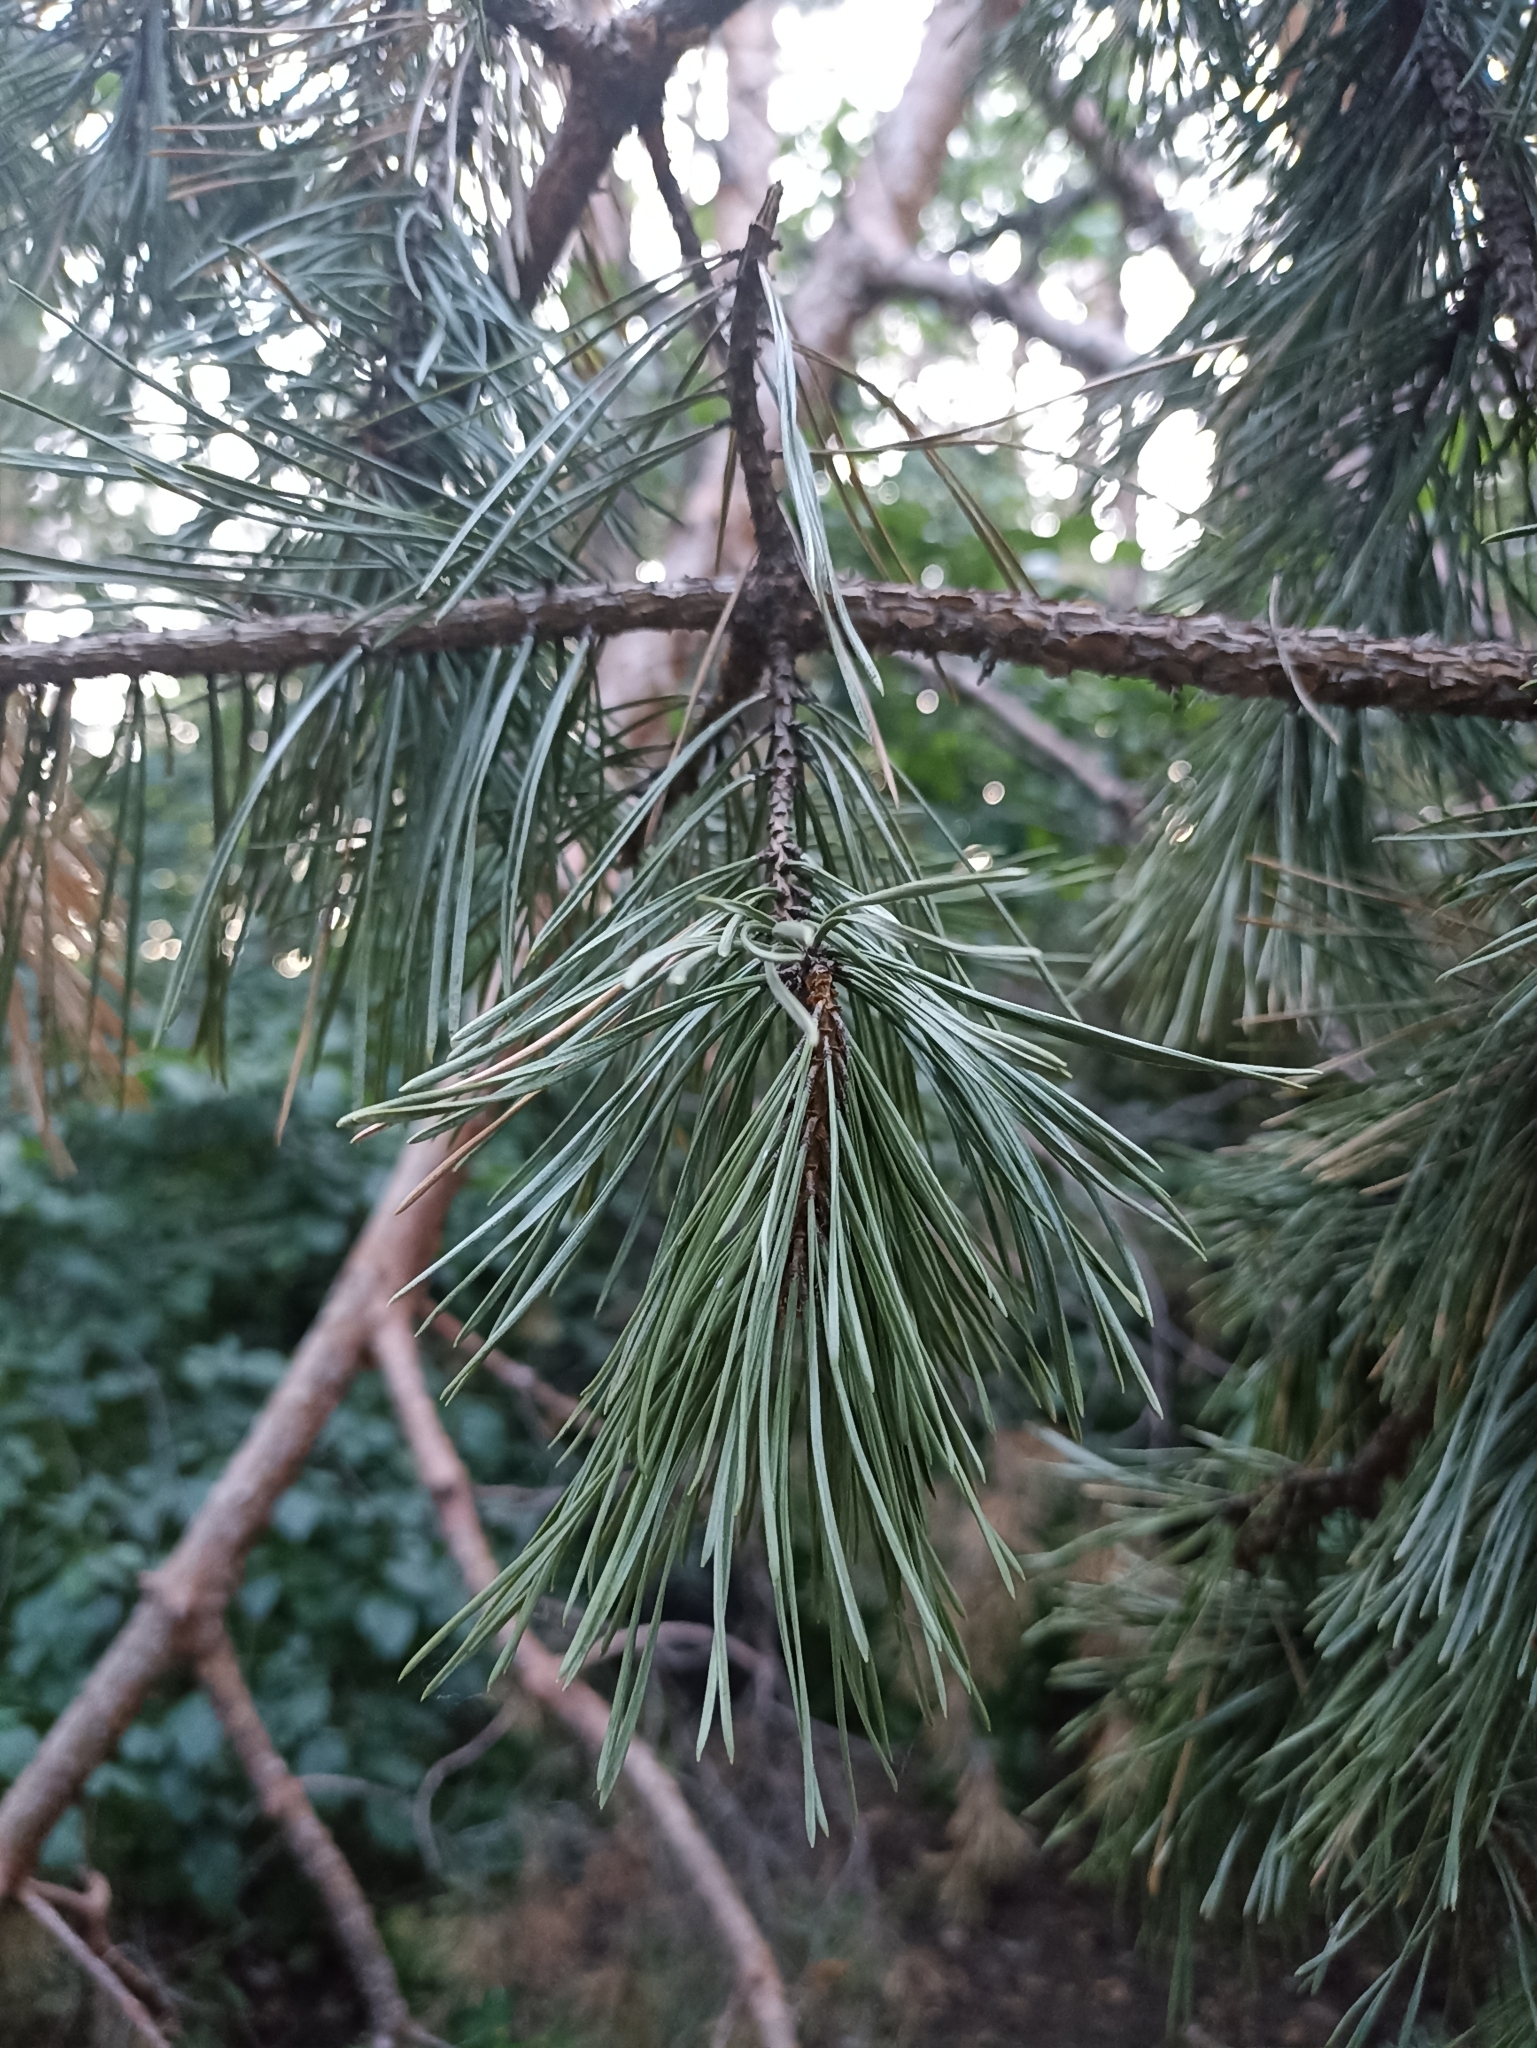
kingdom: Plantae
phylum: Tracheophyta
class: Pinopsida
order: Pinales
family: Pinaceae
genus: Pinus
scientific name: Pinus sylvestris
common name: Scots pine
